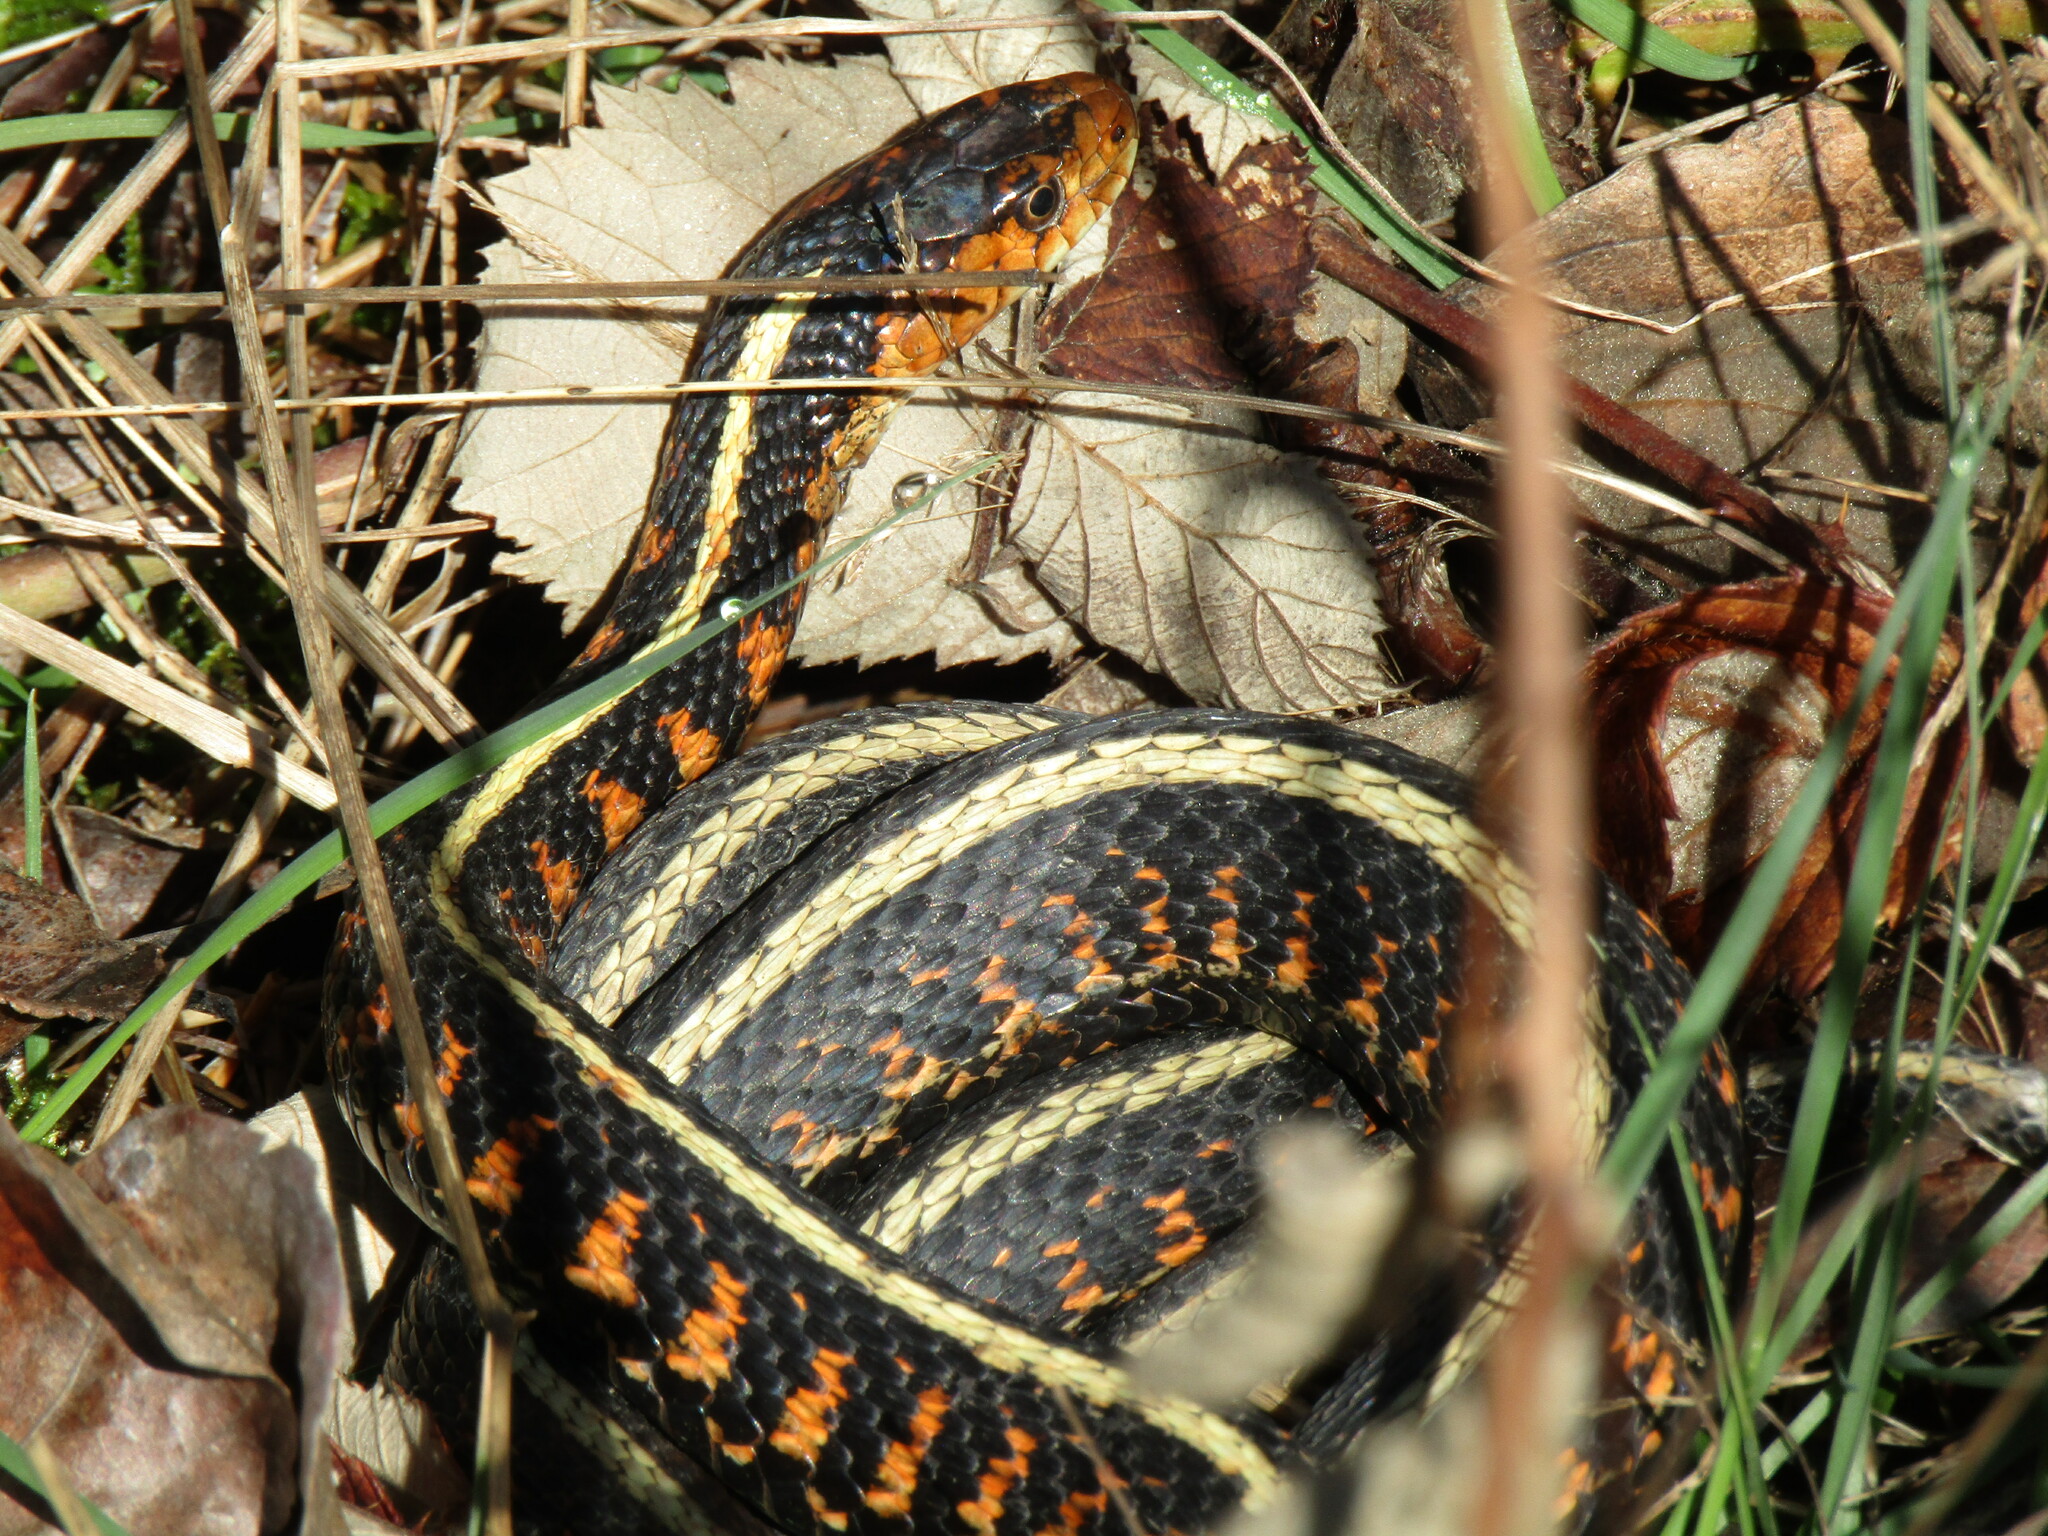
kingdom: Animalia
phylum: Chordata
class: Squamata
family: Colubridae
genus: Thamnophis
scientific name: Thamnophis sirtalis
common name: Common garter snake
